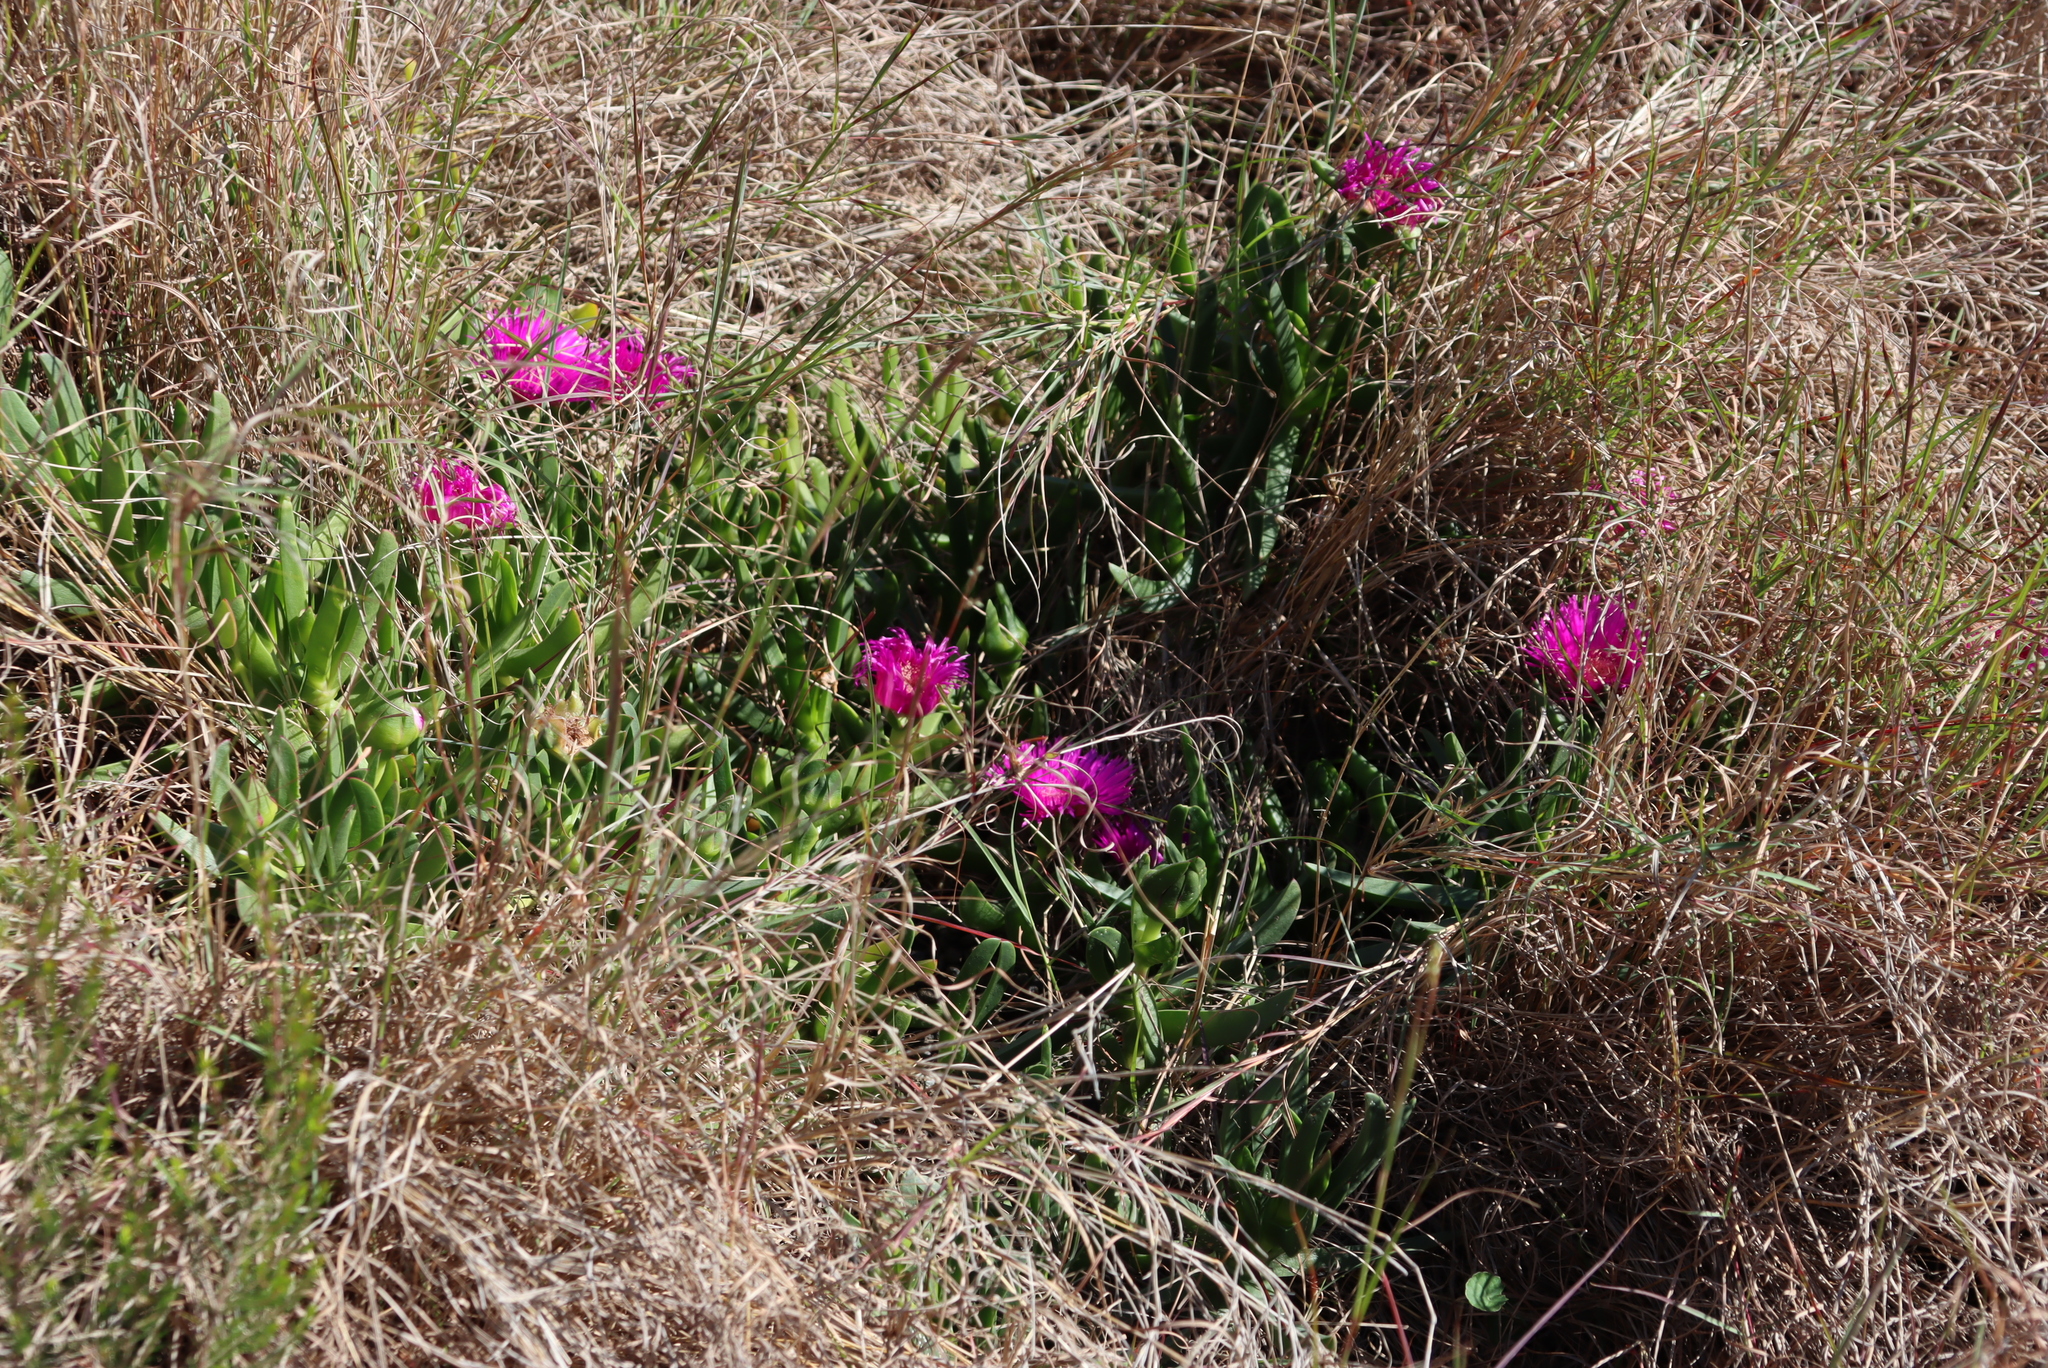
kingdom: Plantae
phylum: Tracheophyta
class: Magnoliopsida
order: Caryophyllales
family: Aizoaceae
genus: Carpobrotus
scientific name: Carpobrotus deliciosus
